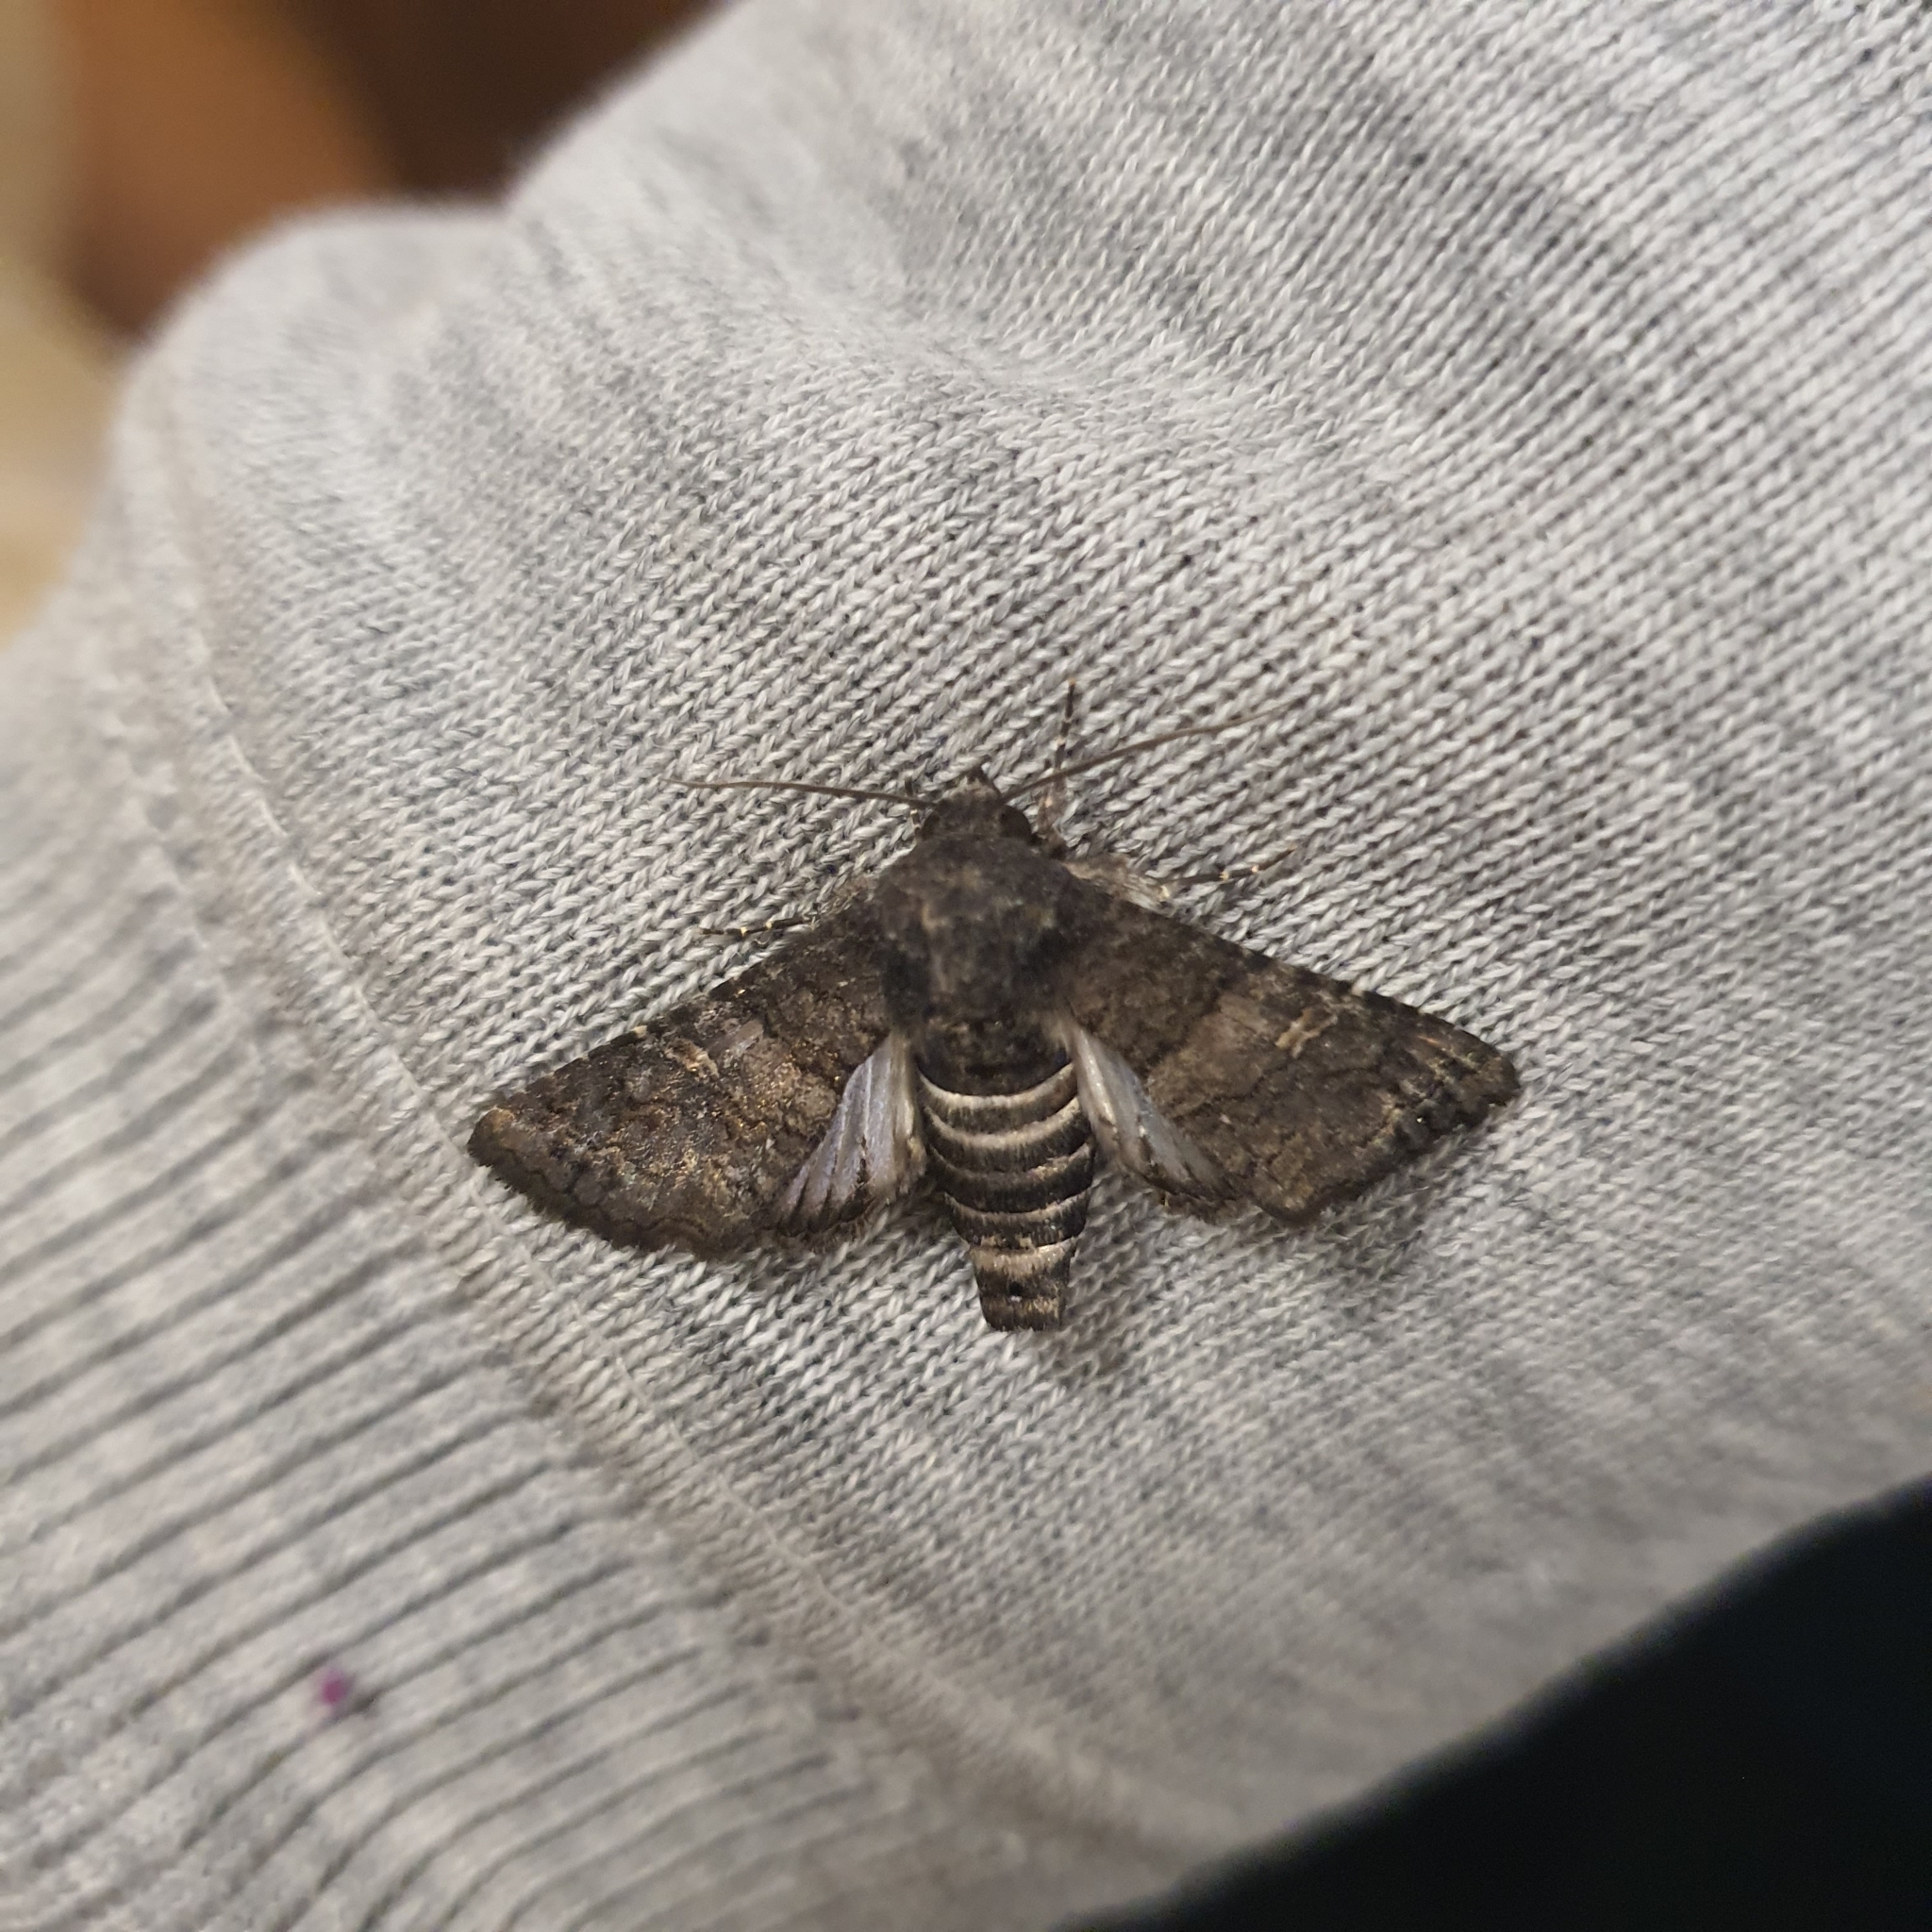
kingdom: Animalia
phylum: Arthropoda
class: Insecta
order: Lepidoptera
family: Euteliidae
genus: Pataeta
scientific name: Pataeta carbo
